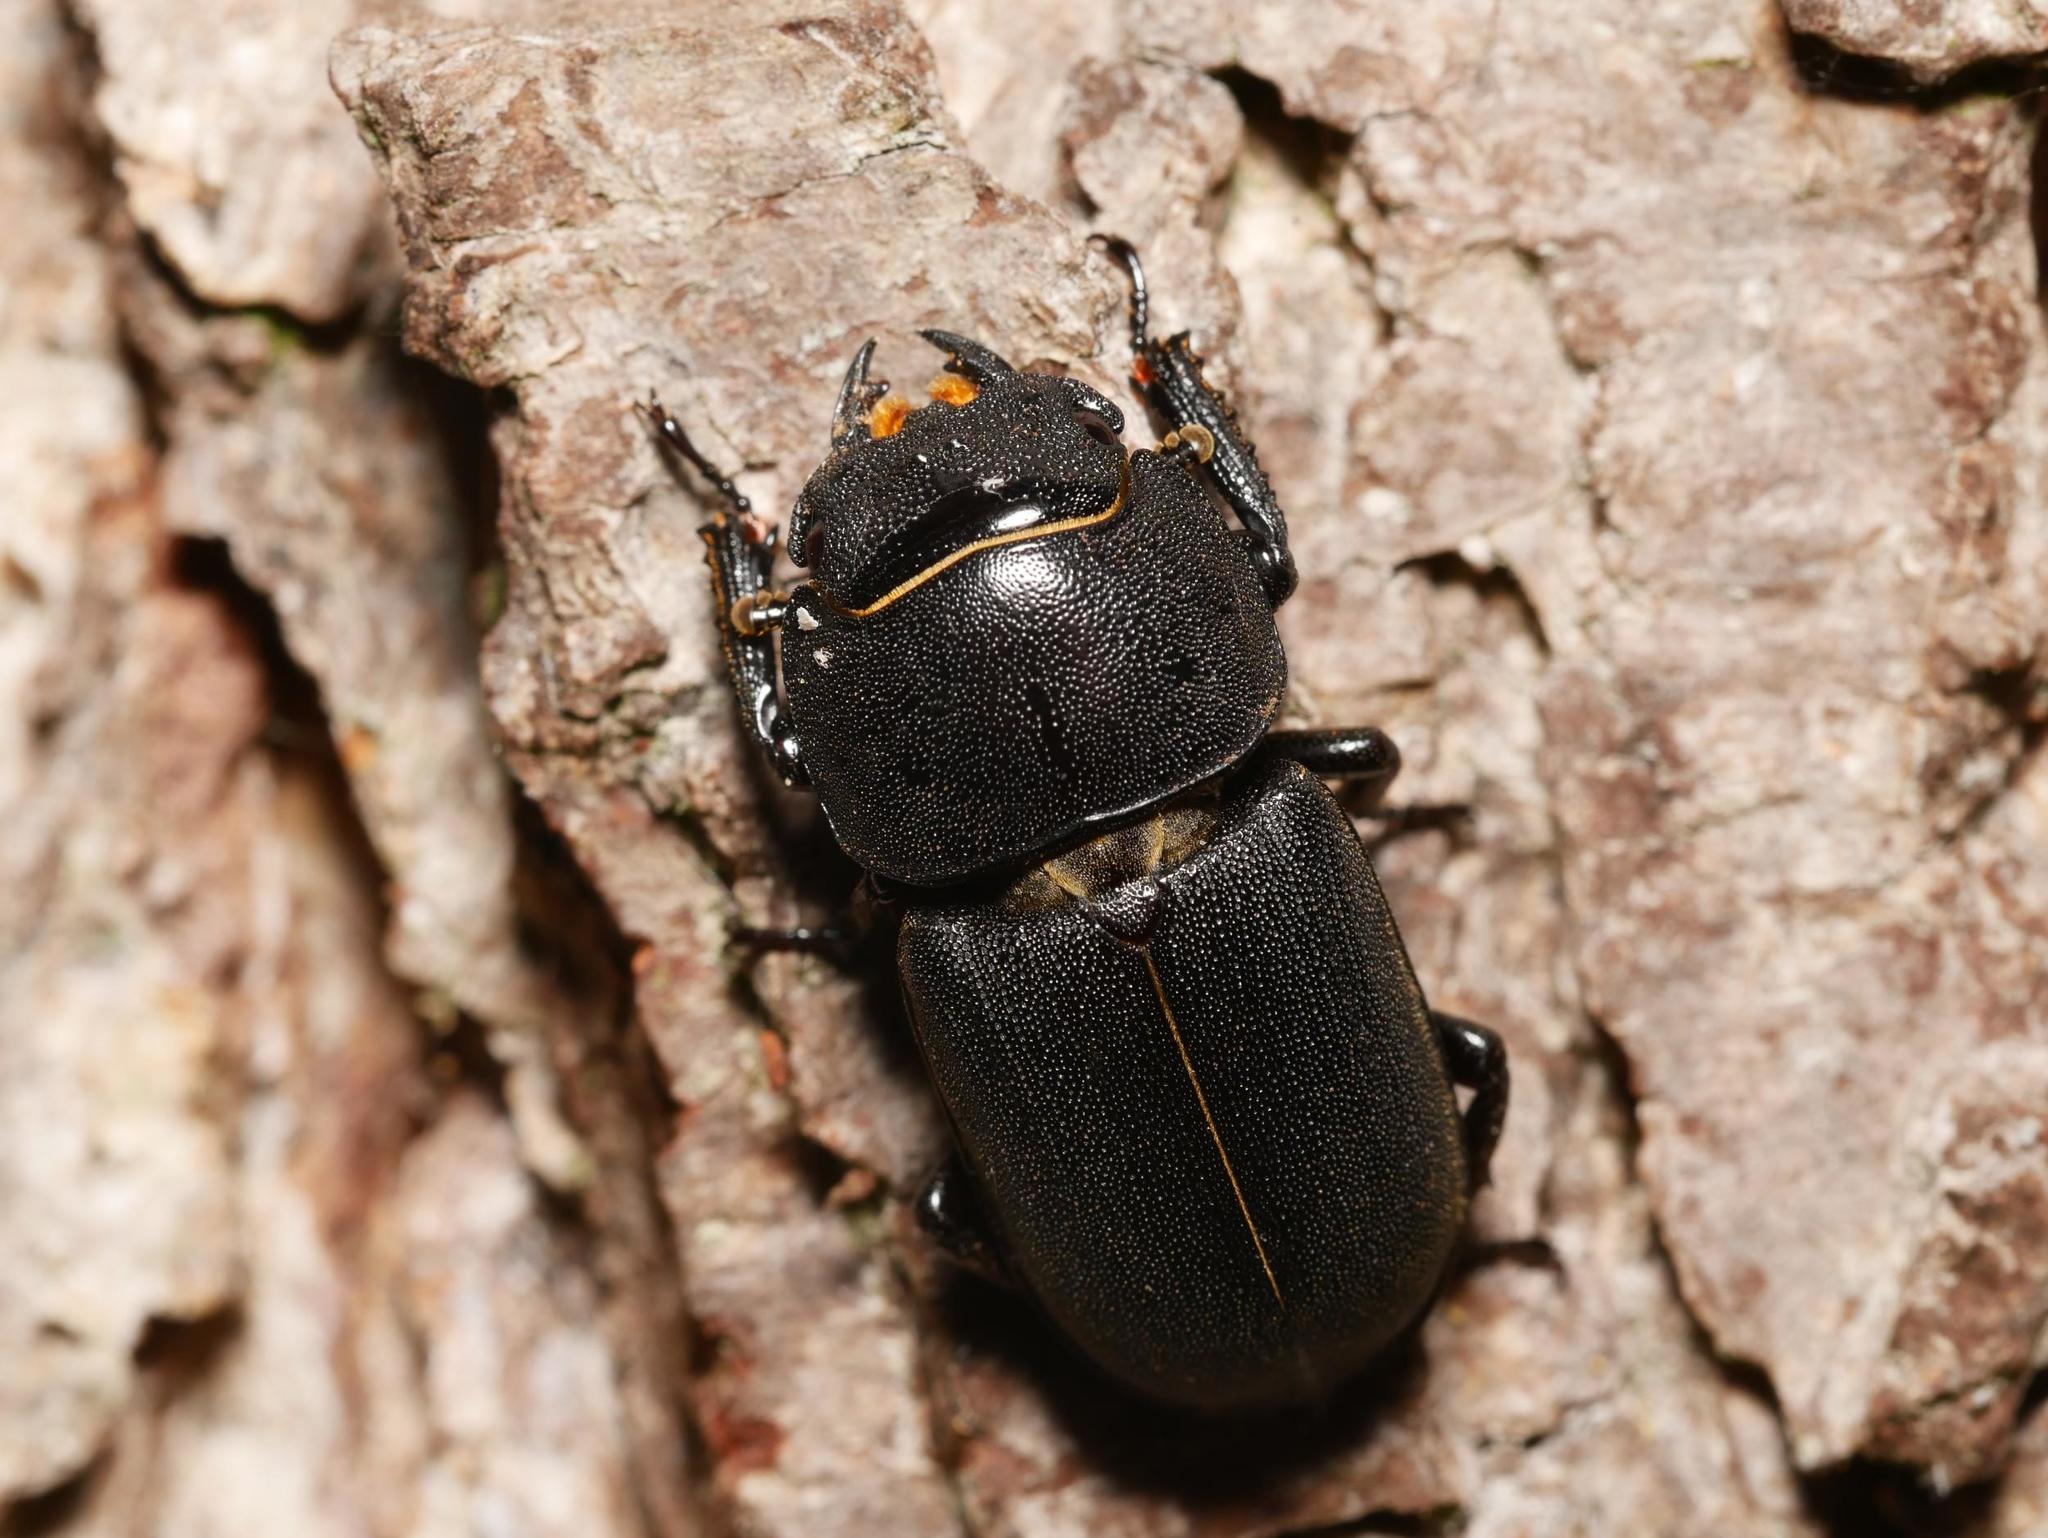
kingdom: Animalia
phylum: Arthropoda
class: Insecta
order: Coleoptera
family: Lucanidae
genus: Dorcus
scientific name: Dorcus parallelipipedus
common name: Lesser stag beetle
